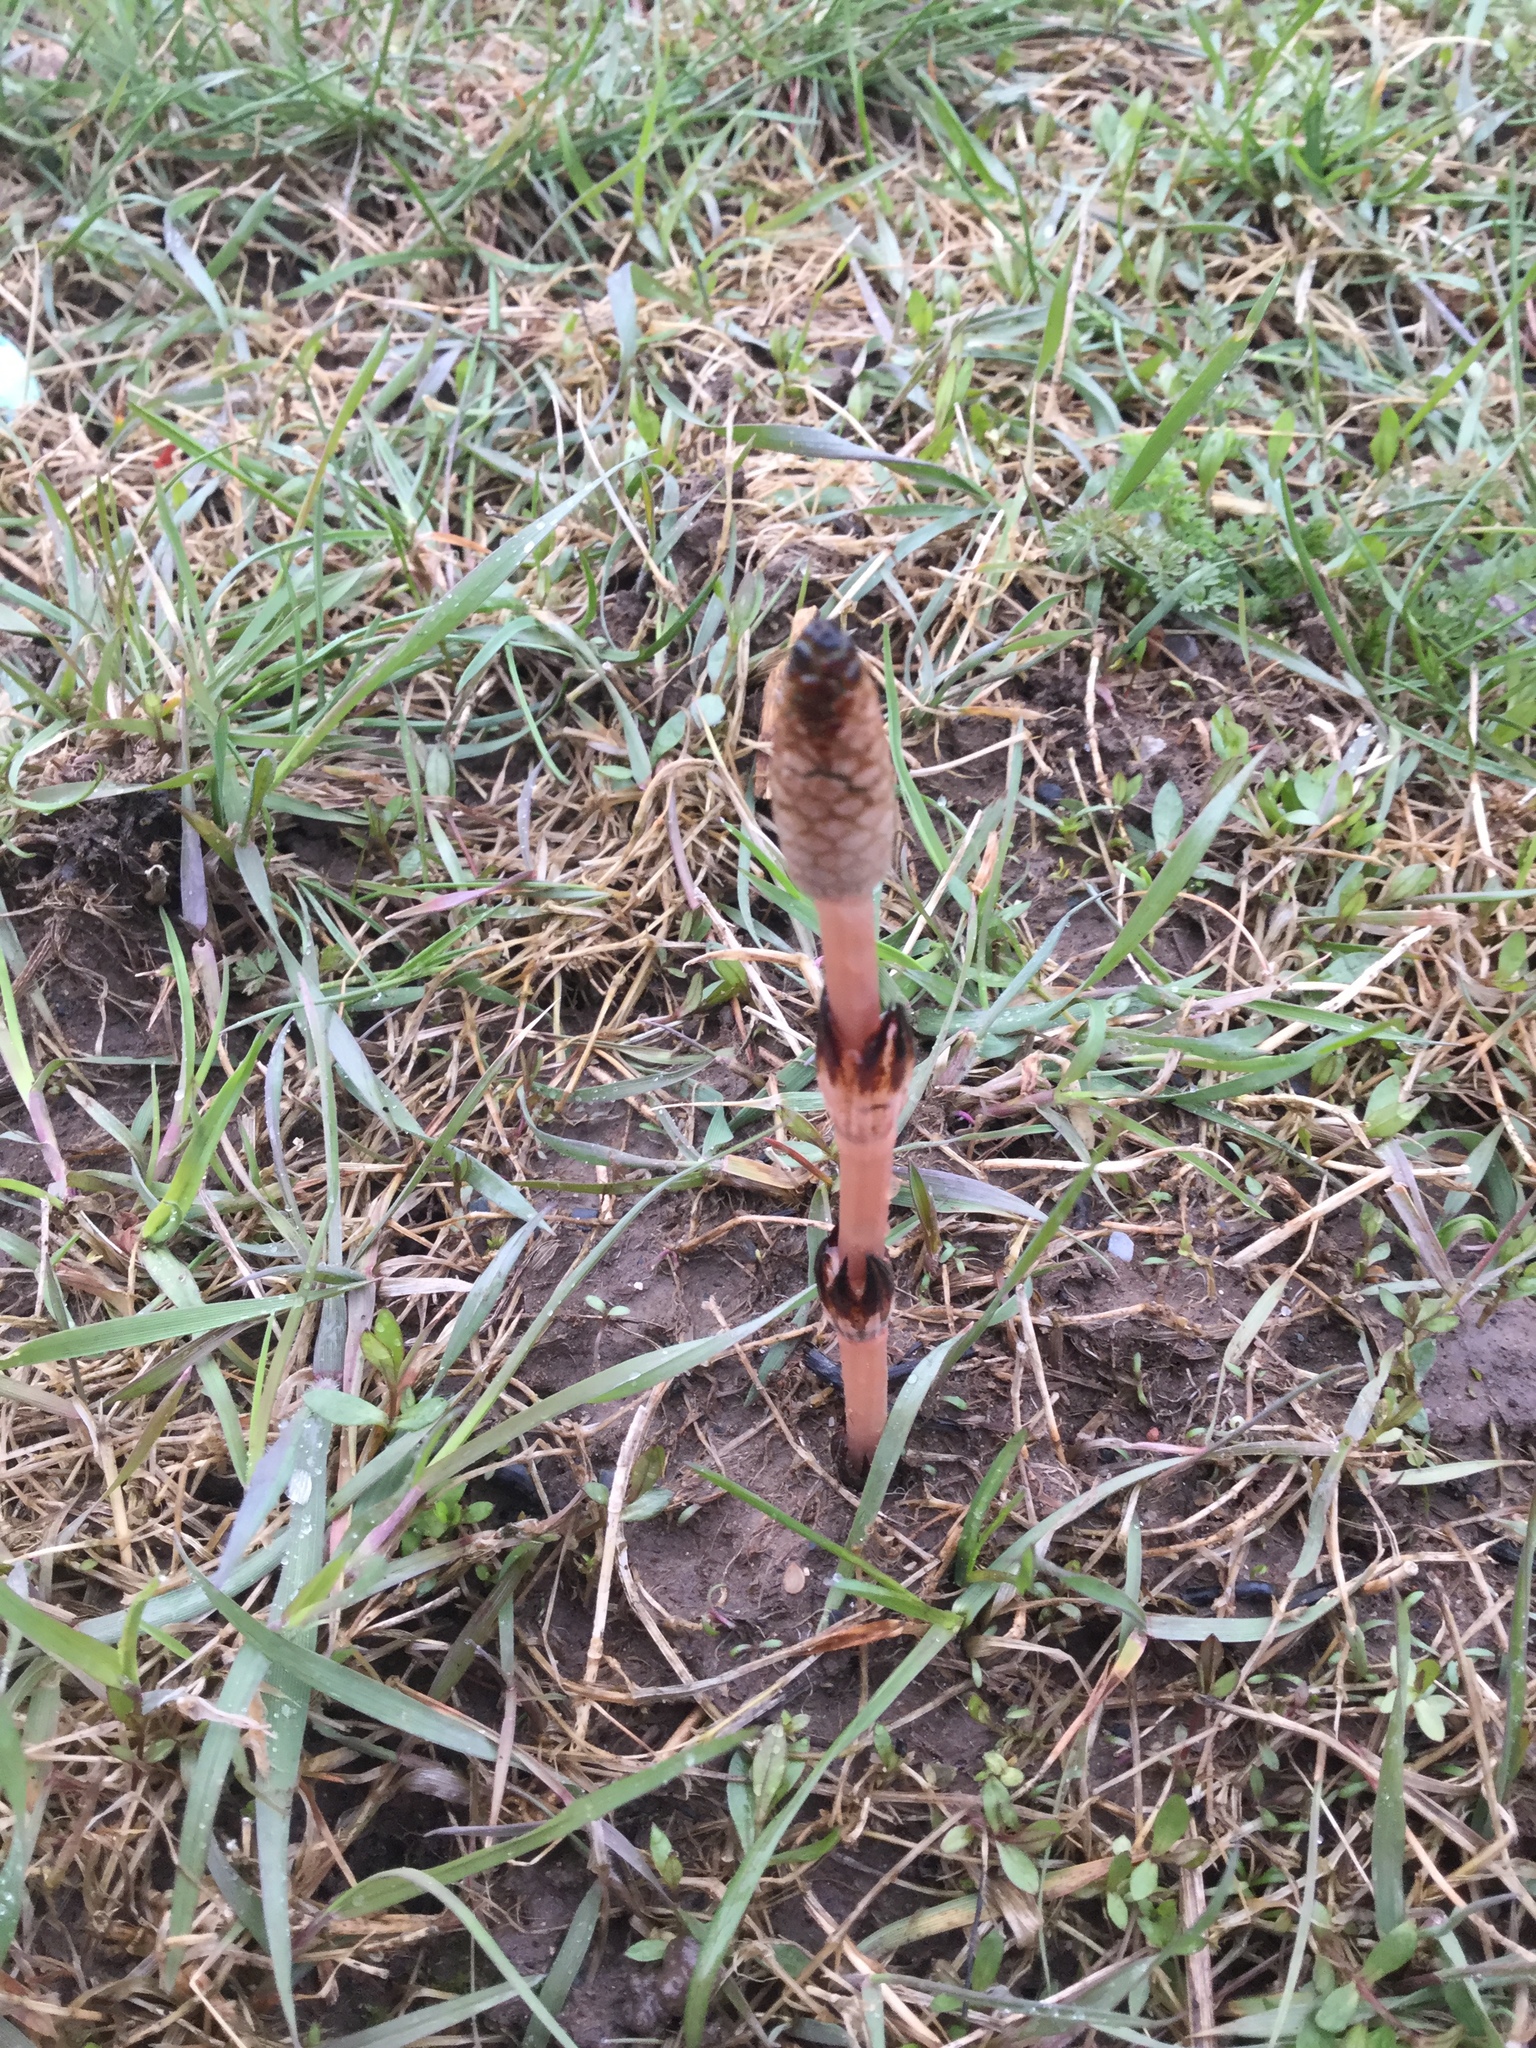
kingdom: Plantae
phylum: Tracheophyta
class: Polypodiopsida
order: Equisetales
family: Equisetaceae
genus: Equisetum
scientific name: Equisetum arvense
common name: Field horsetail
